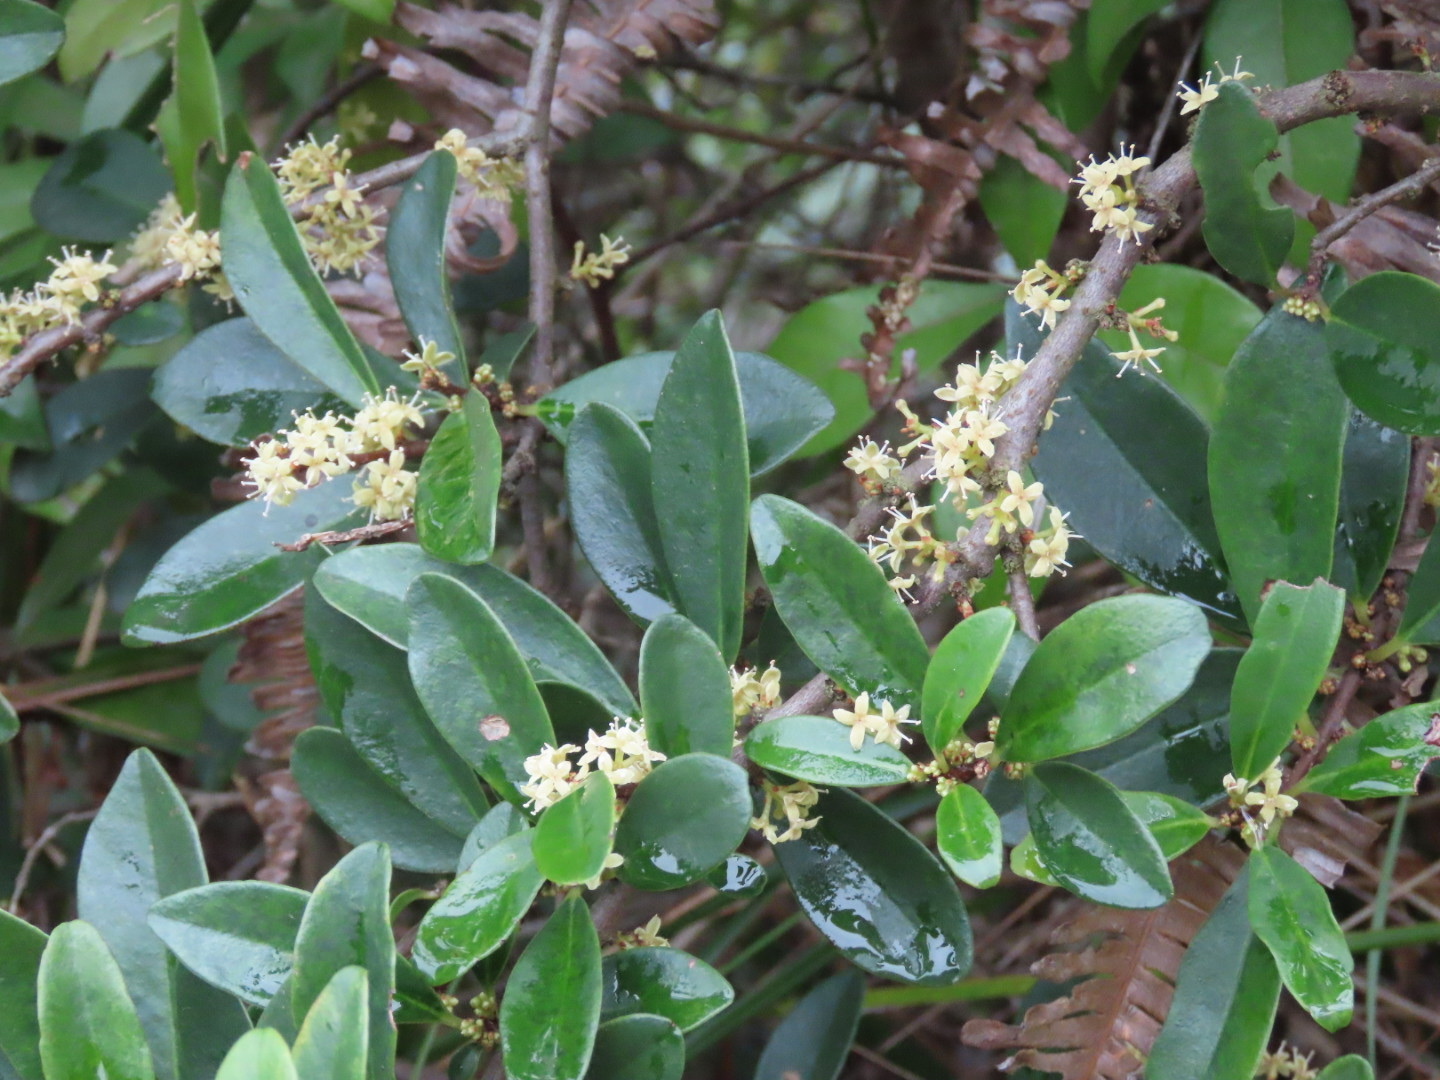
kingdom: Plantae
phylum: Tracheophyta
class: Magnoliopsida
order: Ericales
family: Primulaceae
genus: Embelia
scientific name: Embelia laeta
